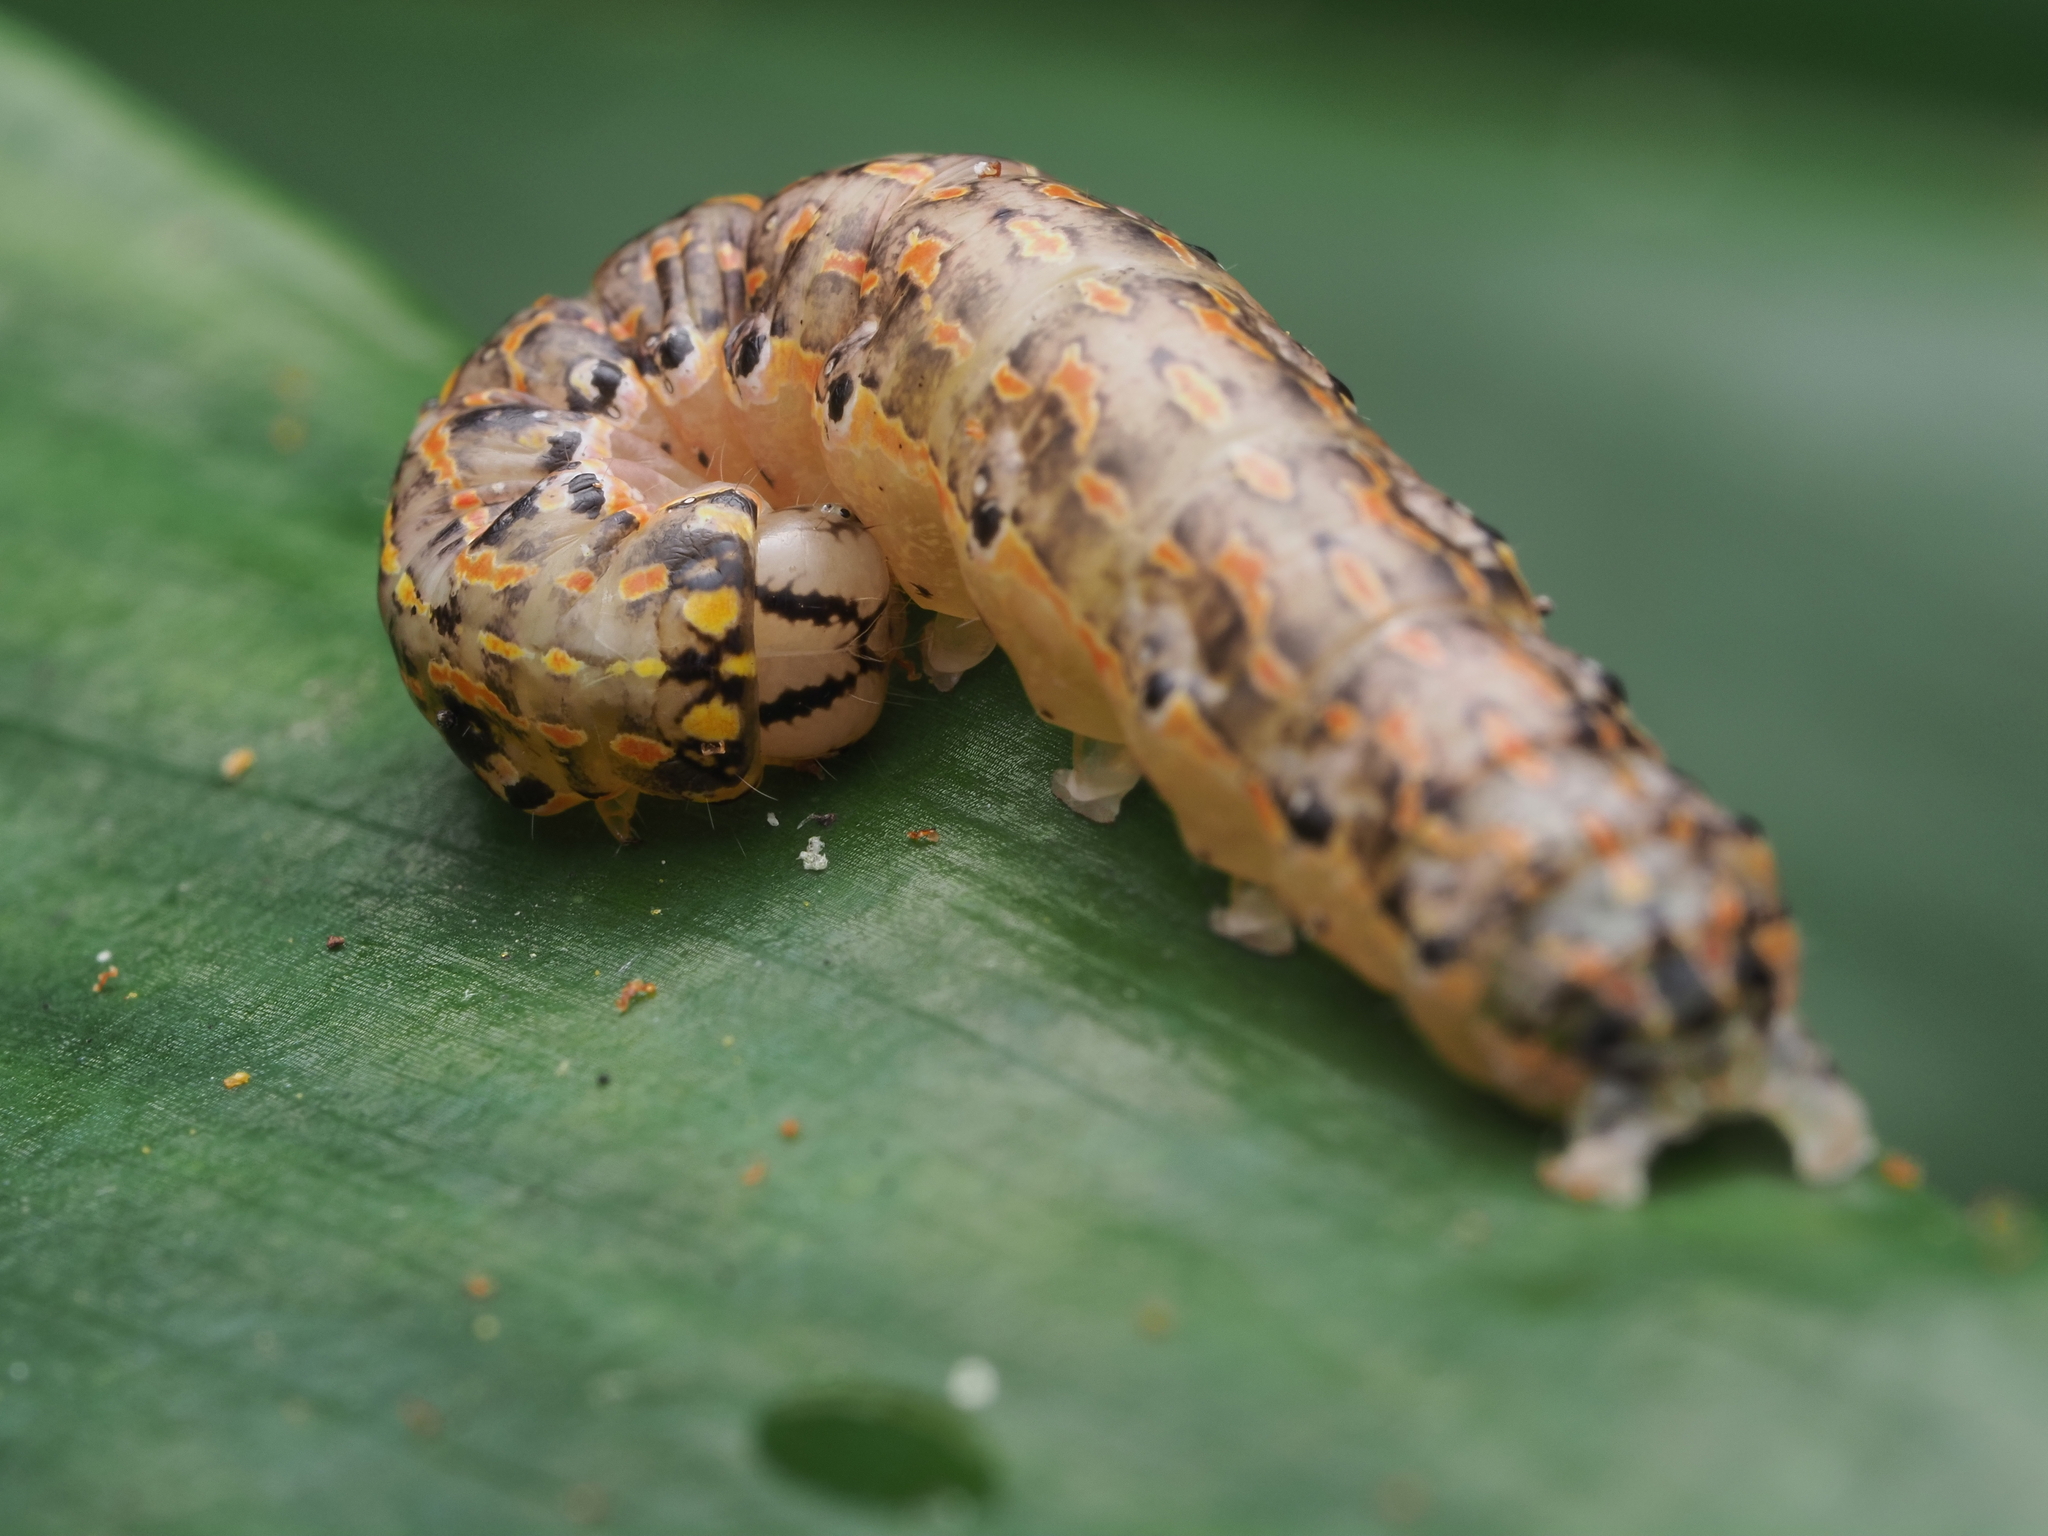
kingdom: Animalia
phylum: Arthropoda
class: Insecta
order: Lepidoptera
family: Noctuidae
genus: Austramathes
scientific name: Austramathes purpurea
